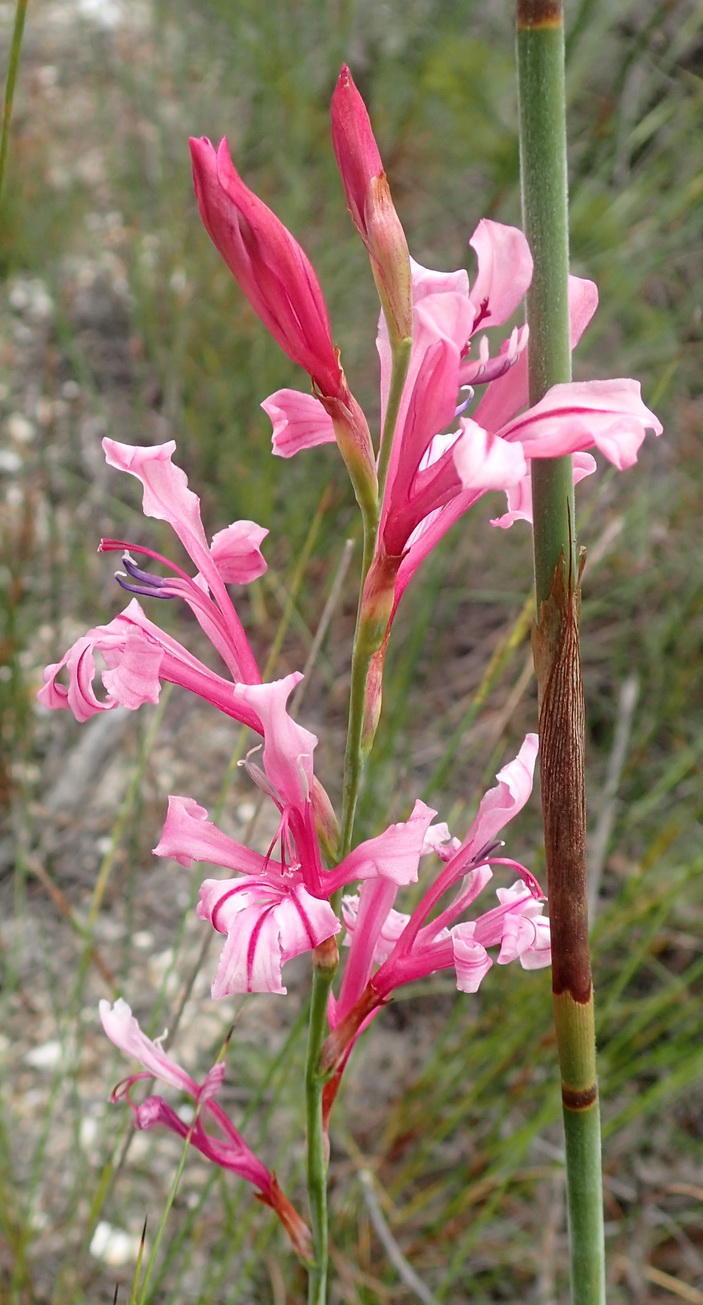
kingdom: Plantae
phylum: Tracheophyta
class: Liliopsida
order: Asparagales
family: Iridaceae
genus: Tritoniopsis
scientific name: Tritoniopsis ramosa
